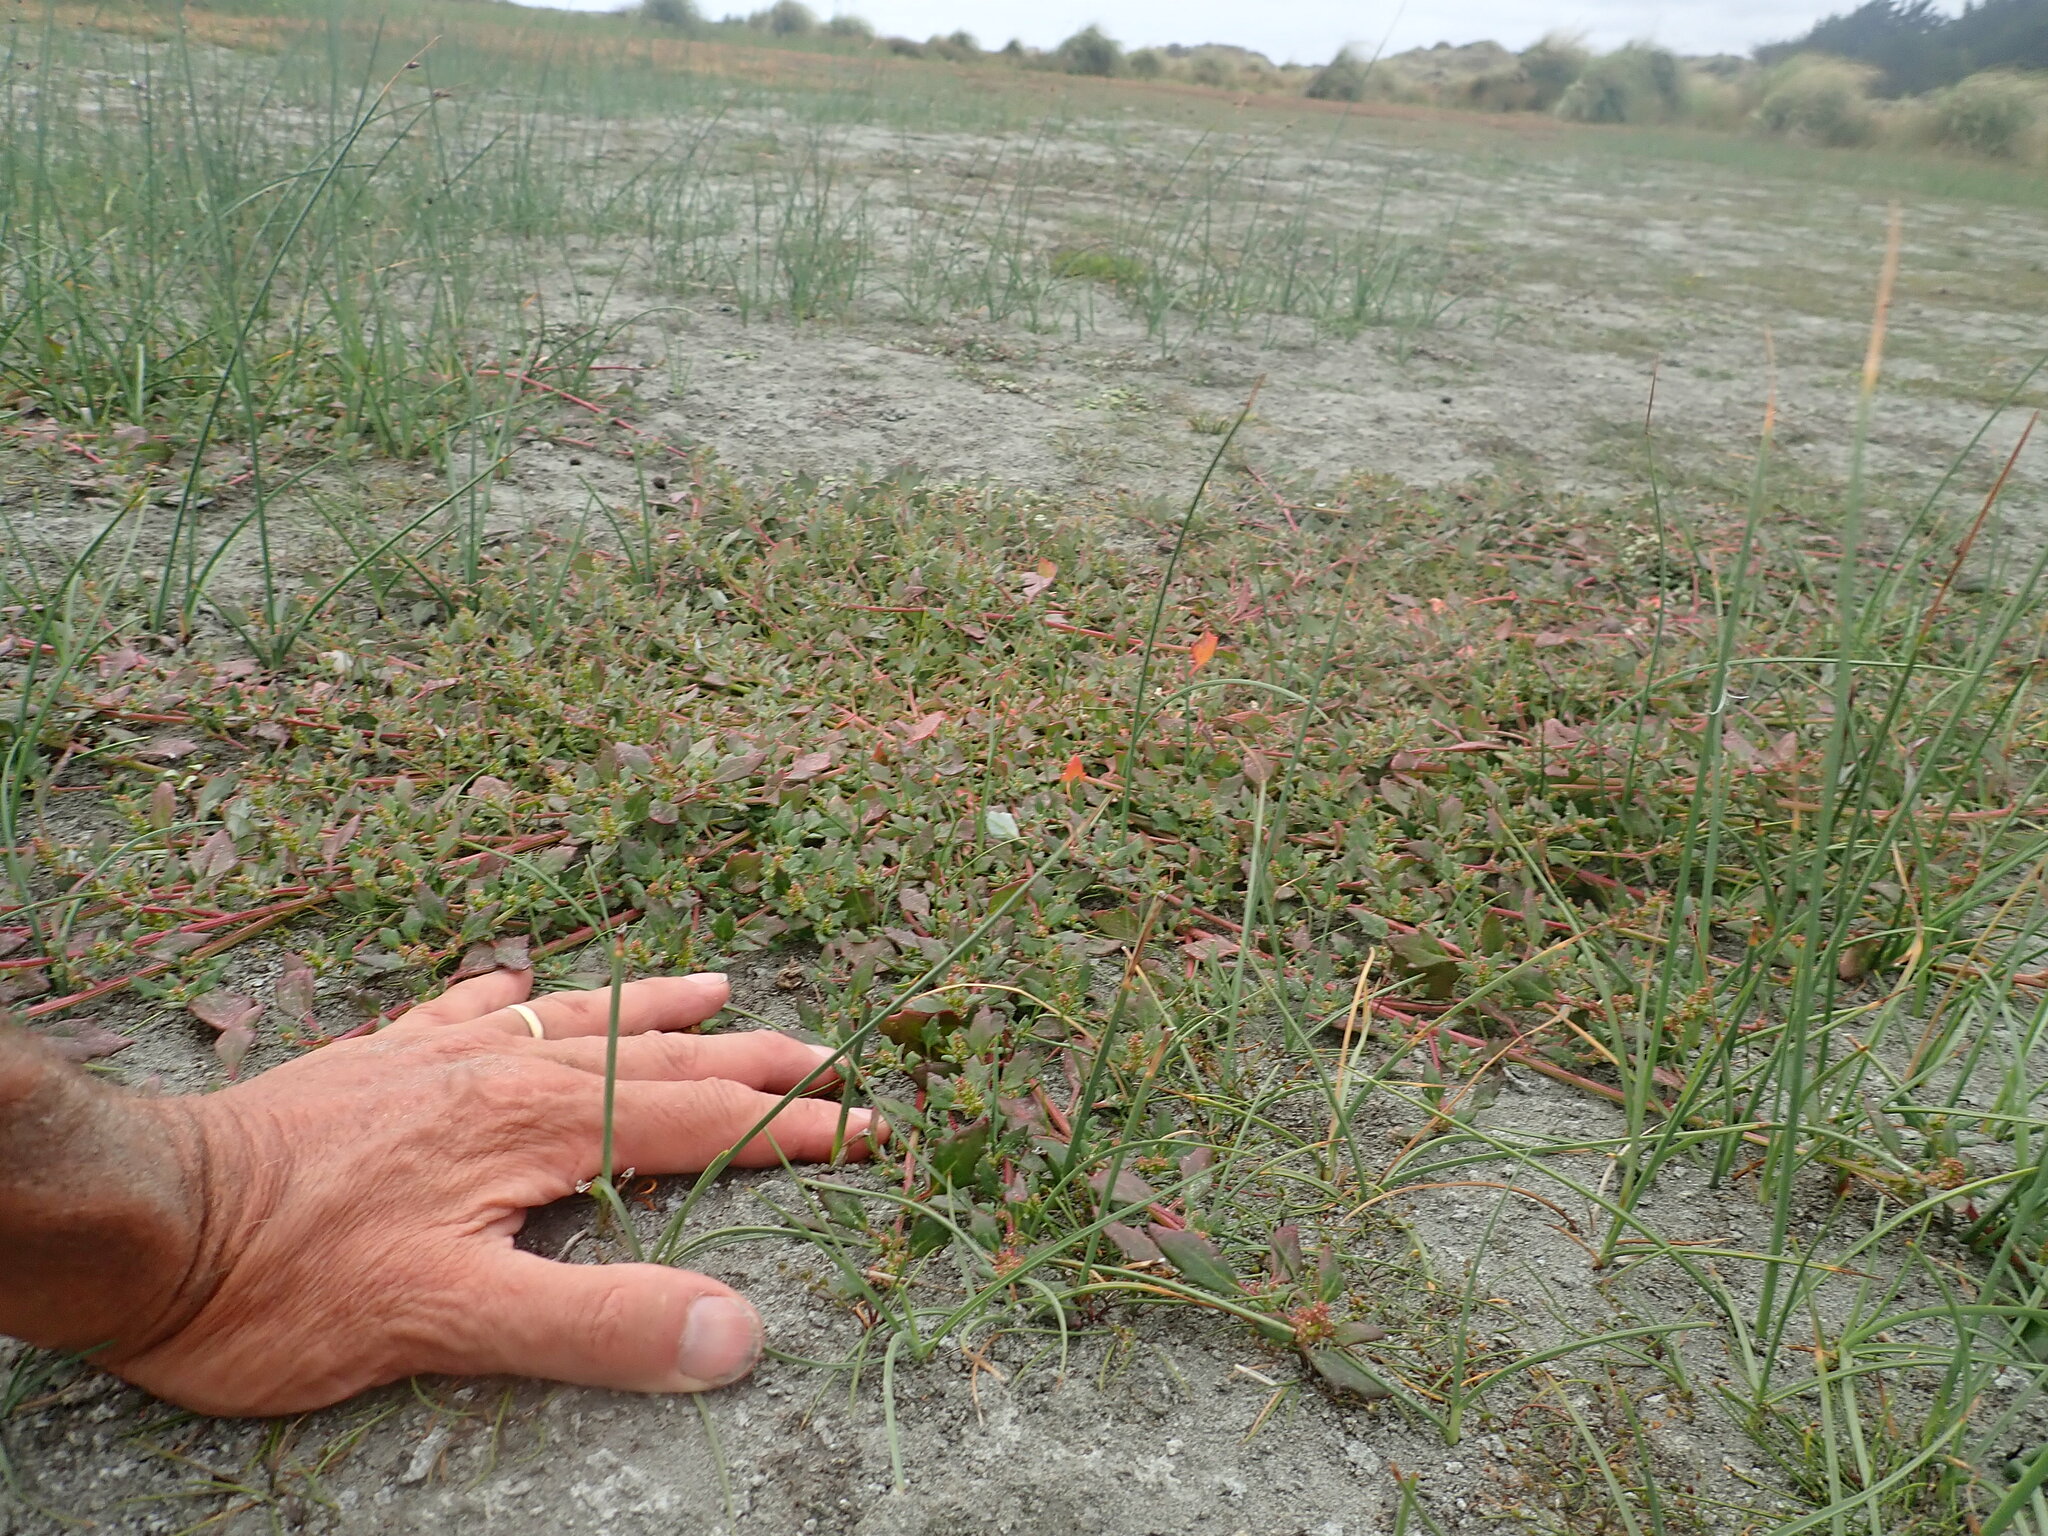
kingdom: Plantae
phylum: Tracheophyta
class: Magnoliopsida
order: Caryophyllales
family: Amaranthaceae
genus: Oxybasis
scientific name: Oxybasis ambigua
